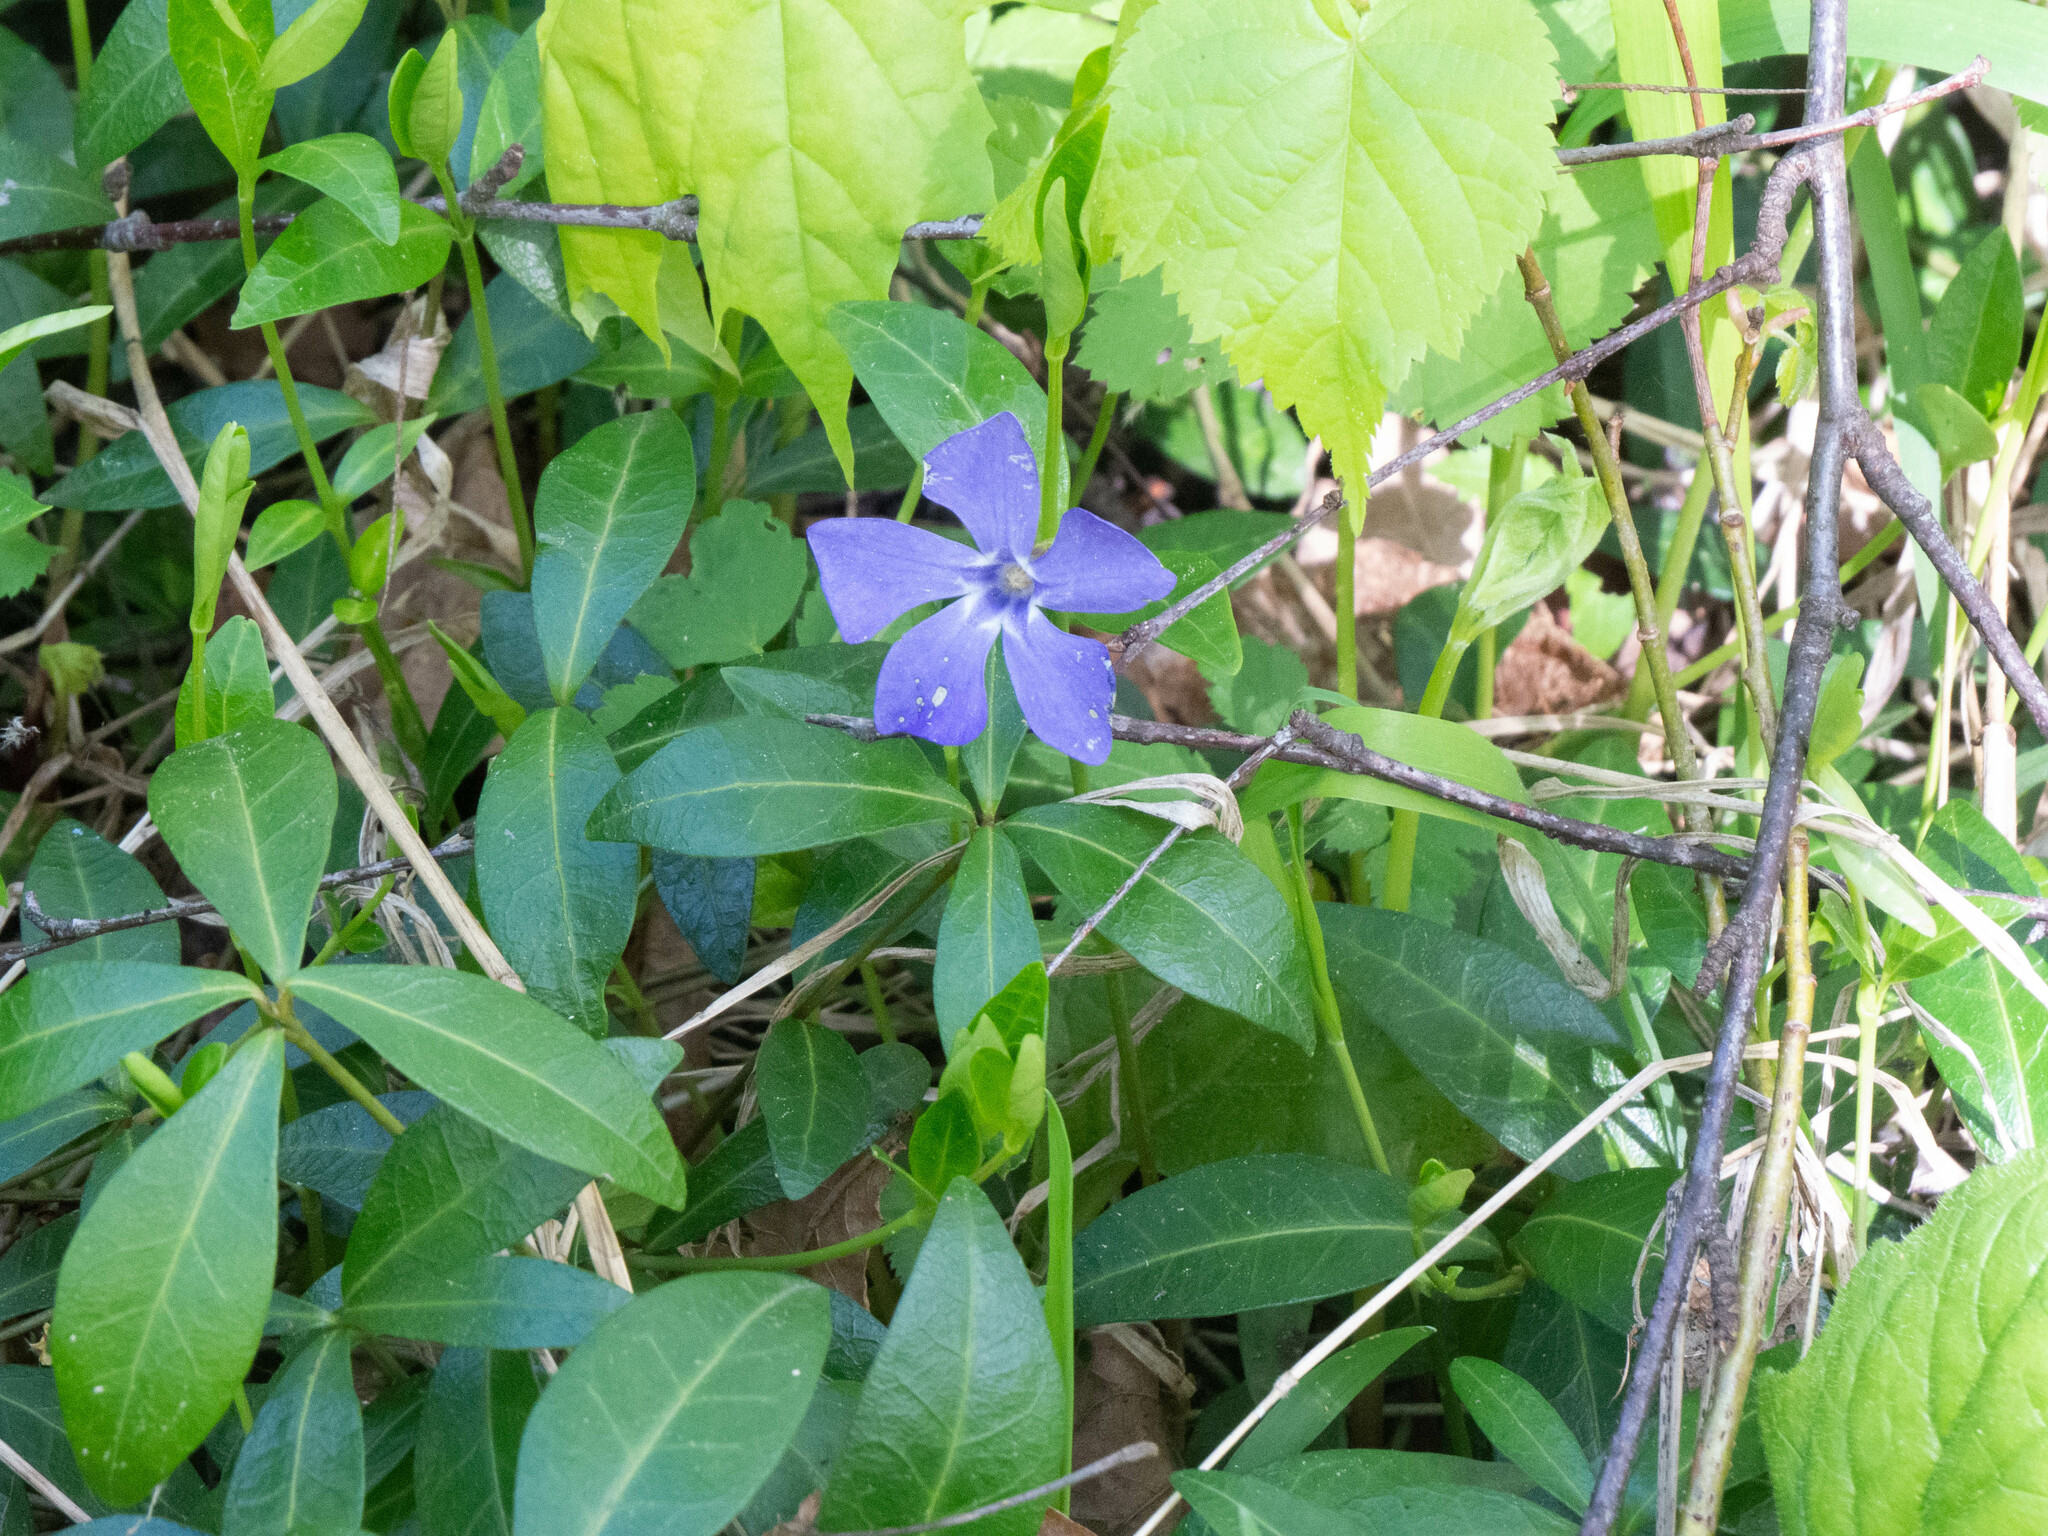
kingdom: Plantae
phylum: Tracheophyta
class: Magnoliopsida
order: Gentianales
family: Apocynaceae
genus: Vinca
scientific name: Vinca minor
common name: Lesser periwinkle
